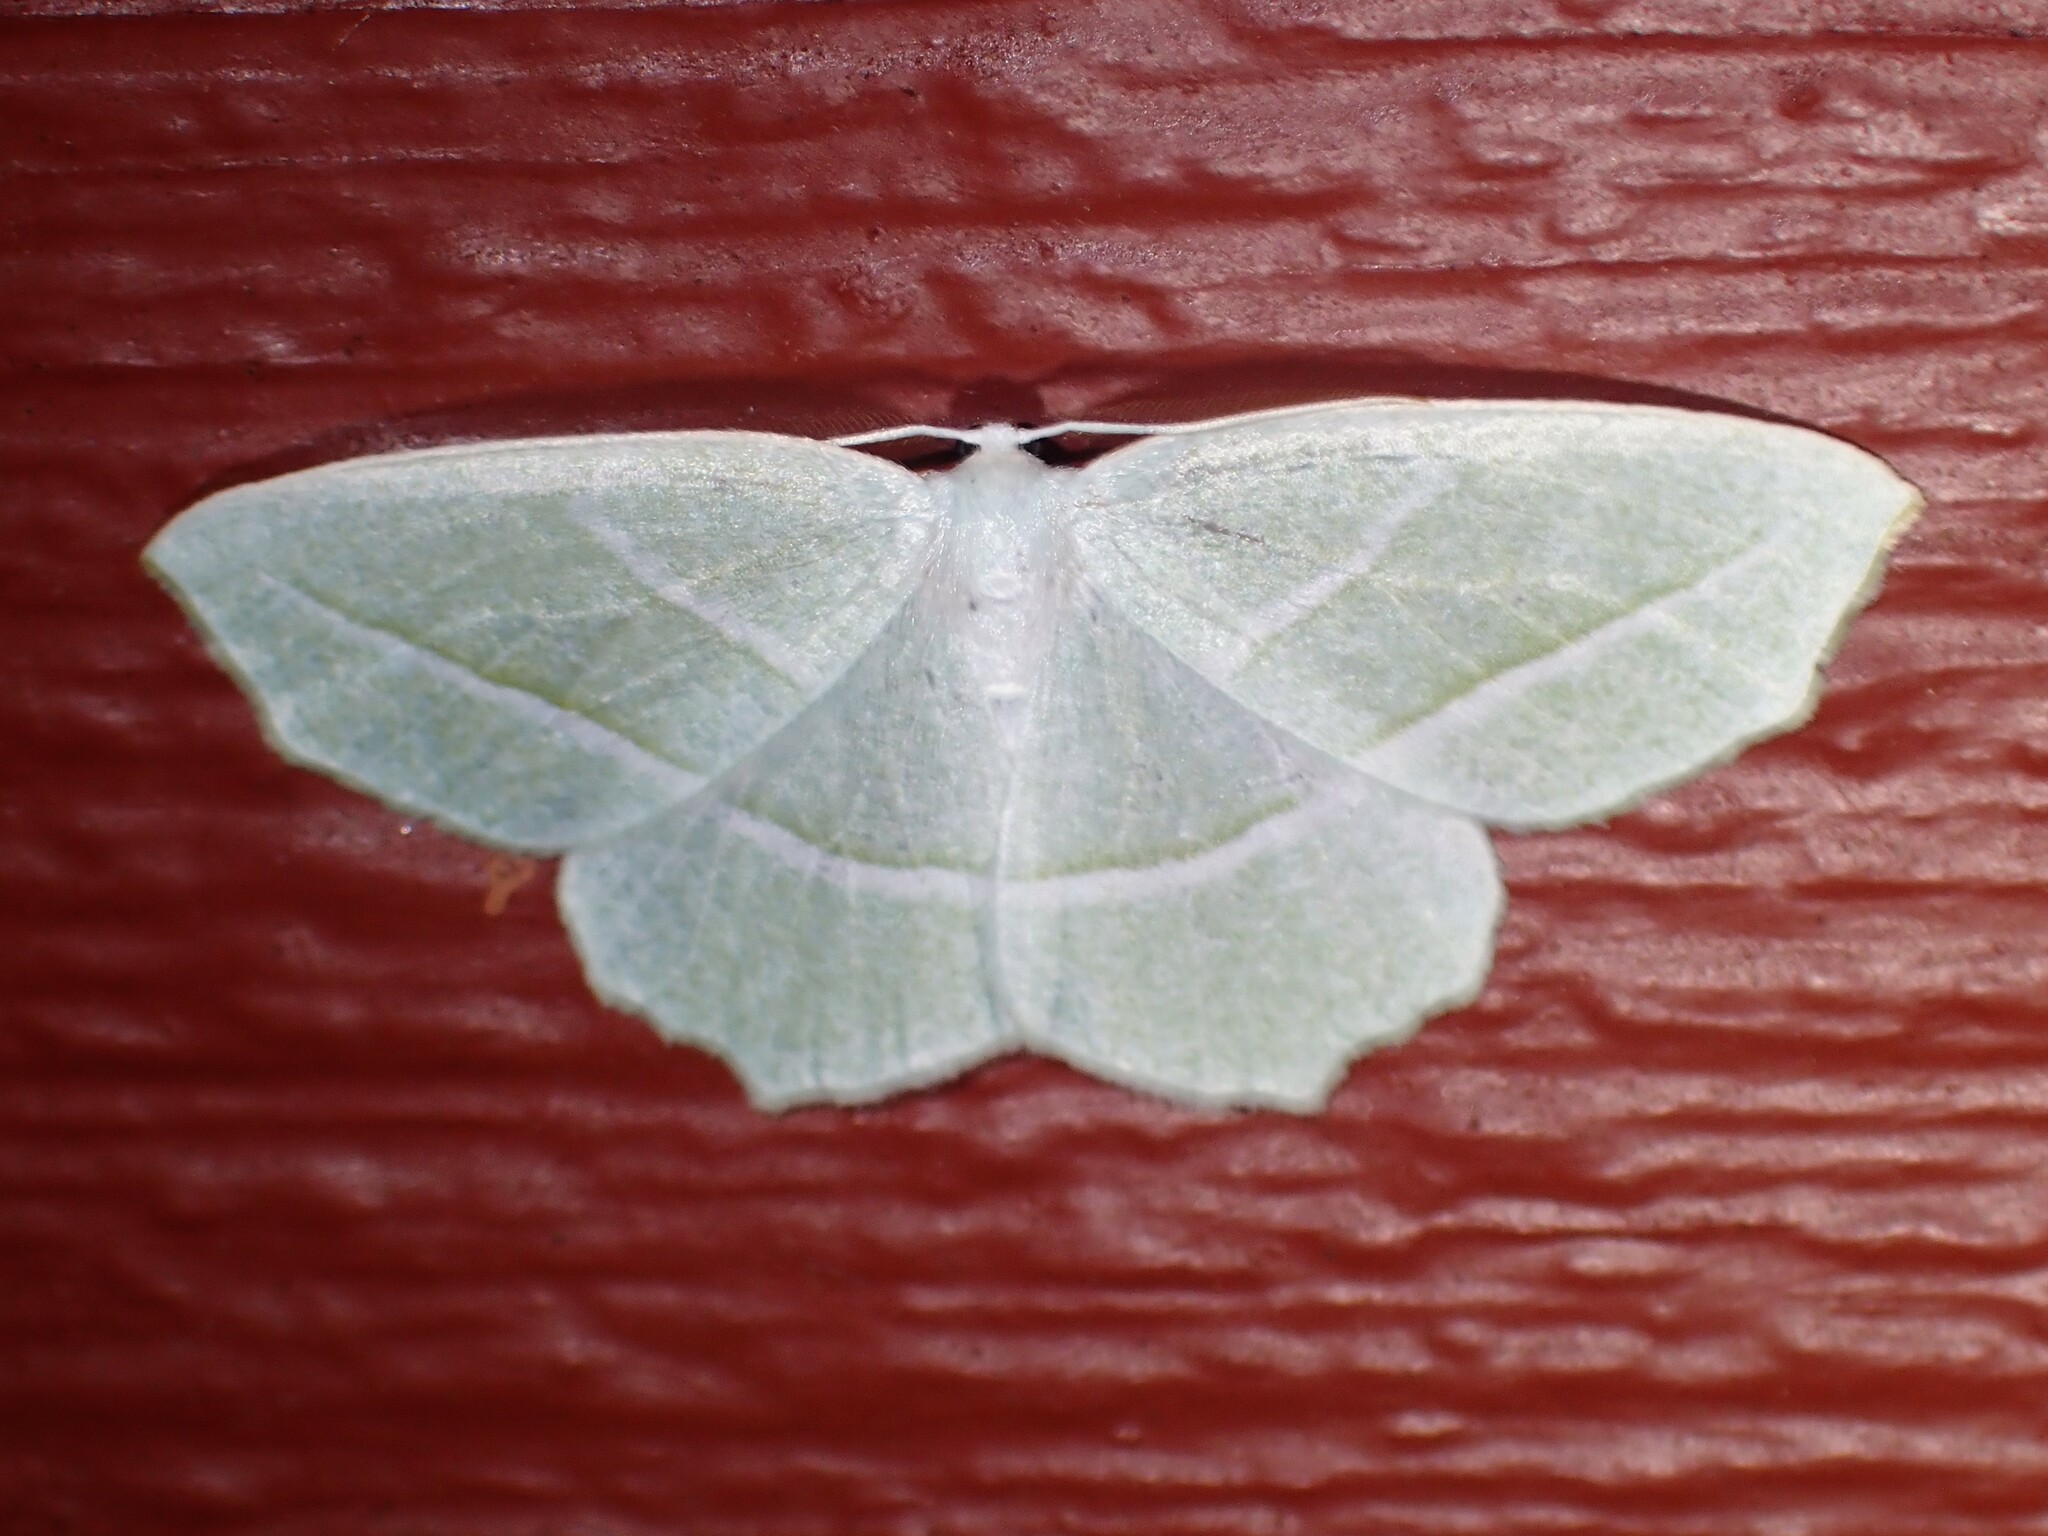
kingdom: Animalia
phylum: Arthropoda
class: Insecta
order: Lepidoptera
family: Geometridae
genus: Campaea
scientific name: Campaea perlata
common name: Fringed looper
